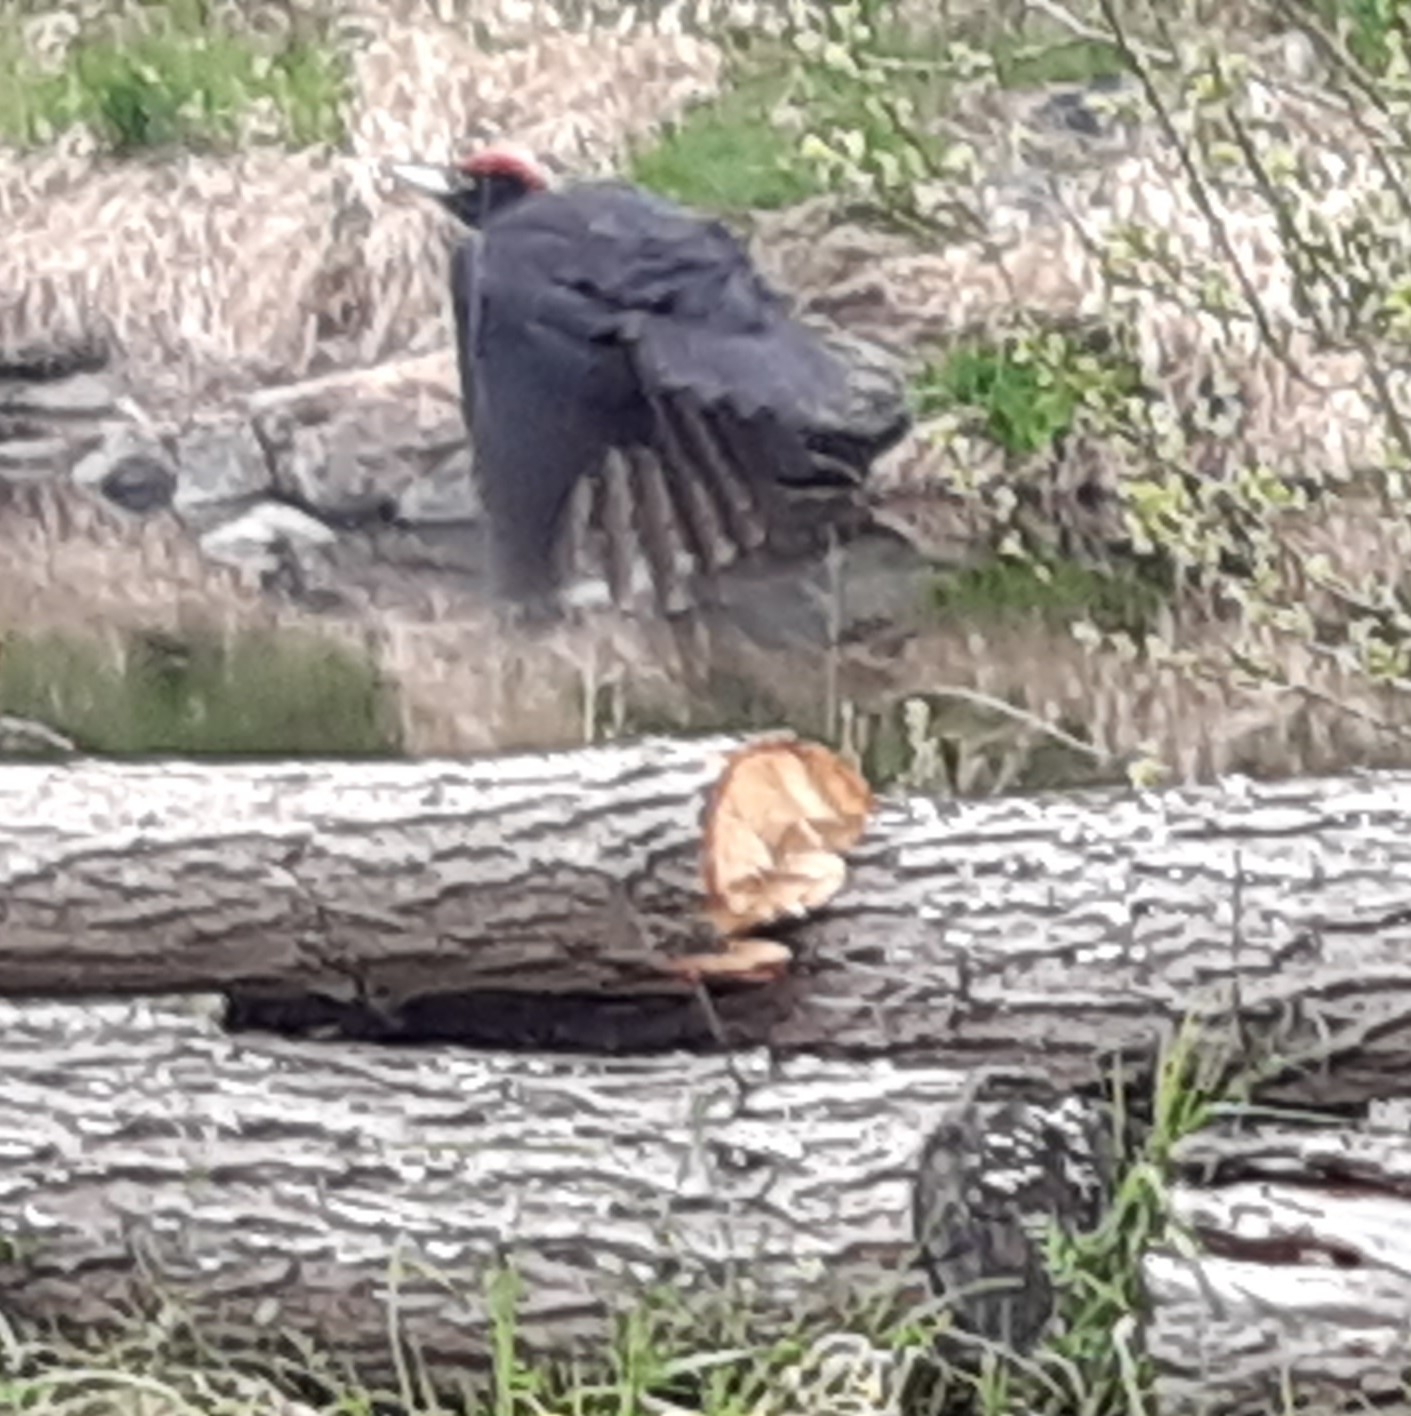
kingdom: Animalia
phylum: Chordata
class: Aves
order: Piciformes
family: Picidae
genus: Dryocopus
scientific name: Dryocopus martius
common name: Black woodpecker
